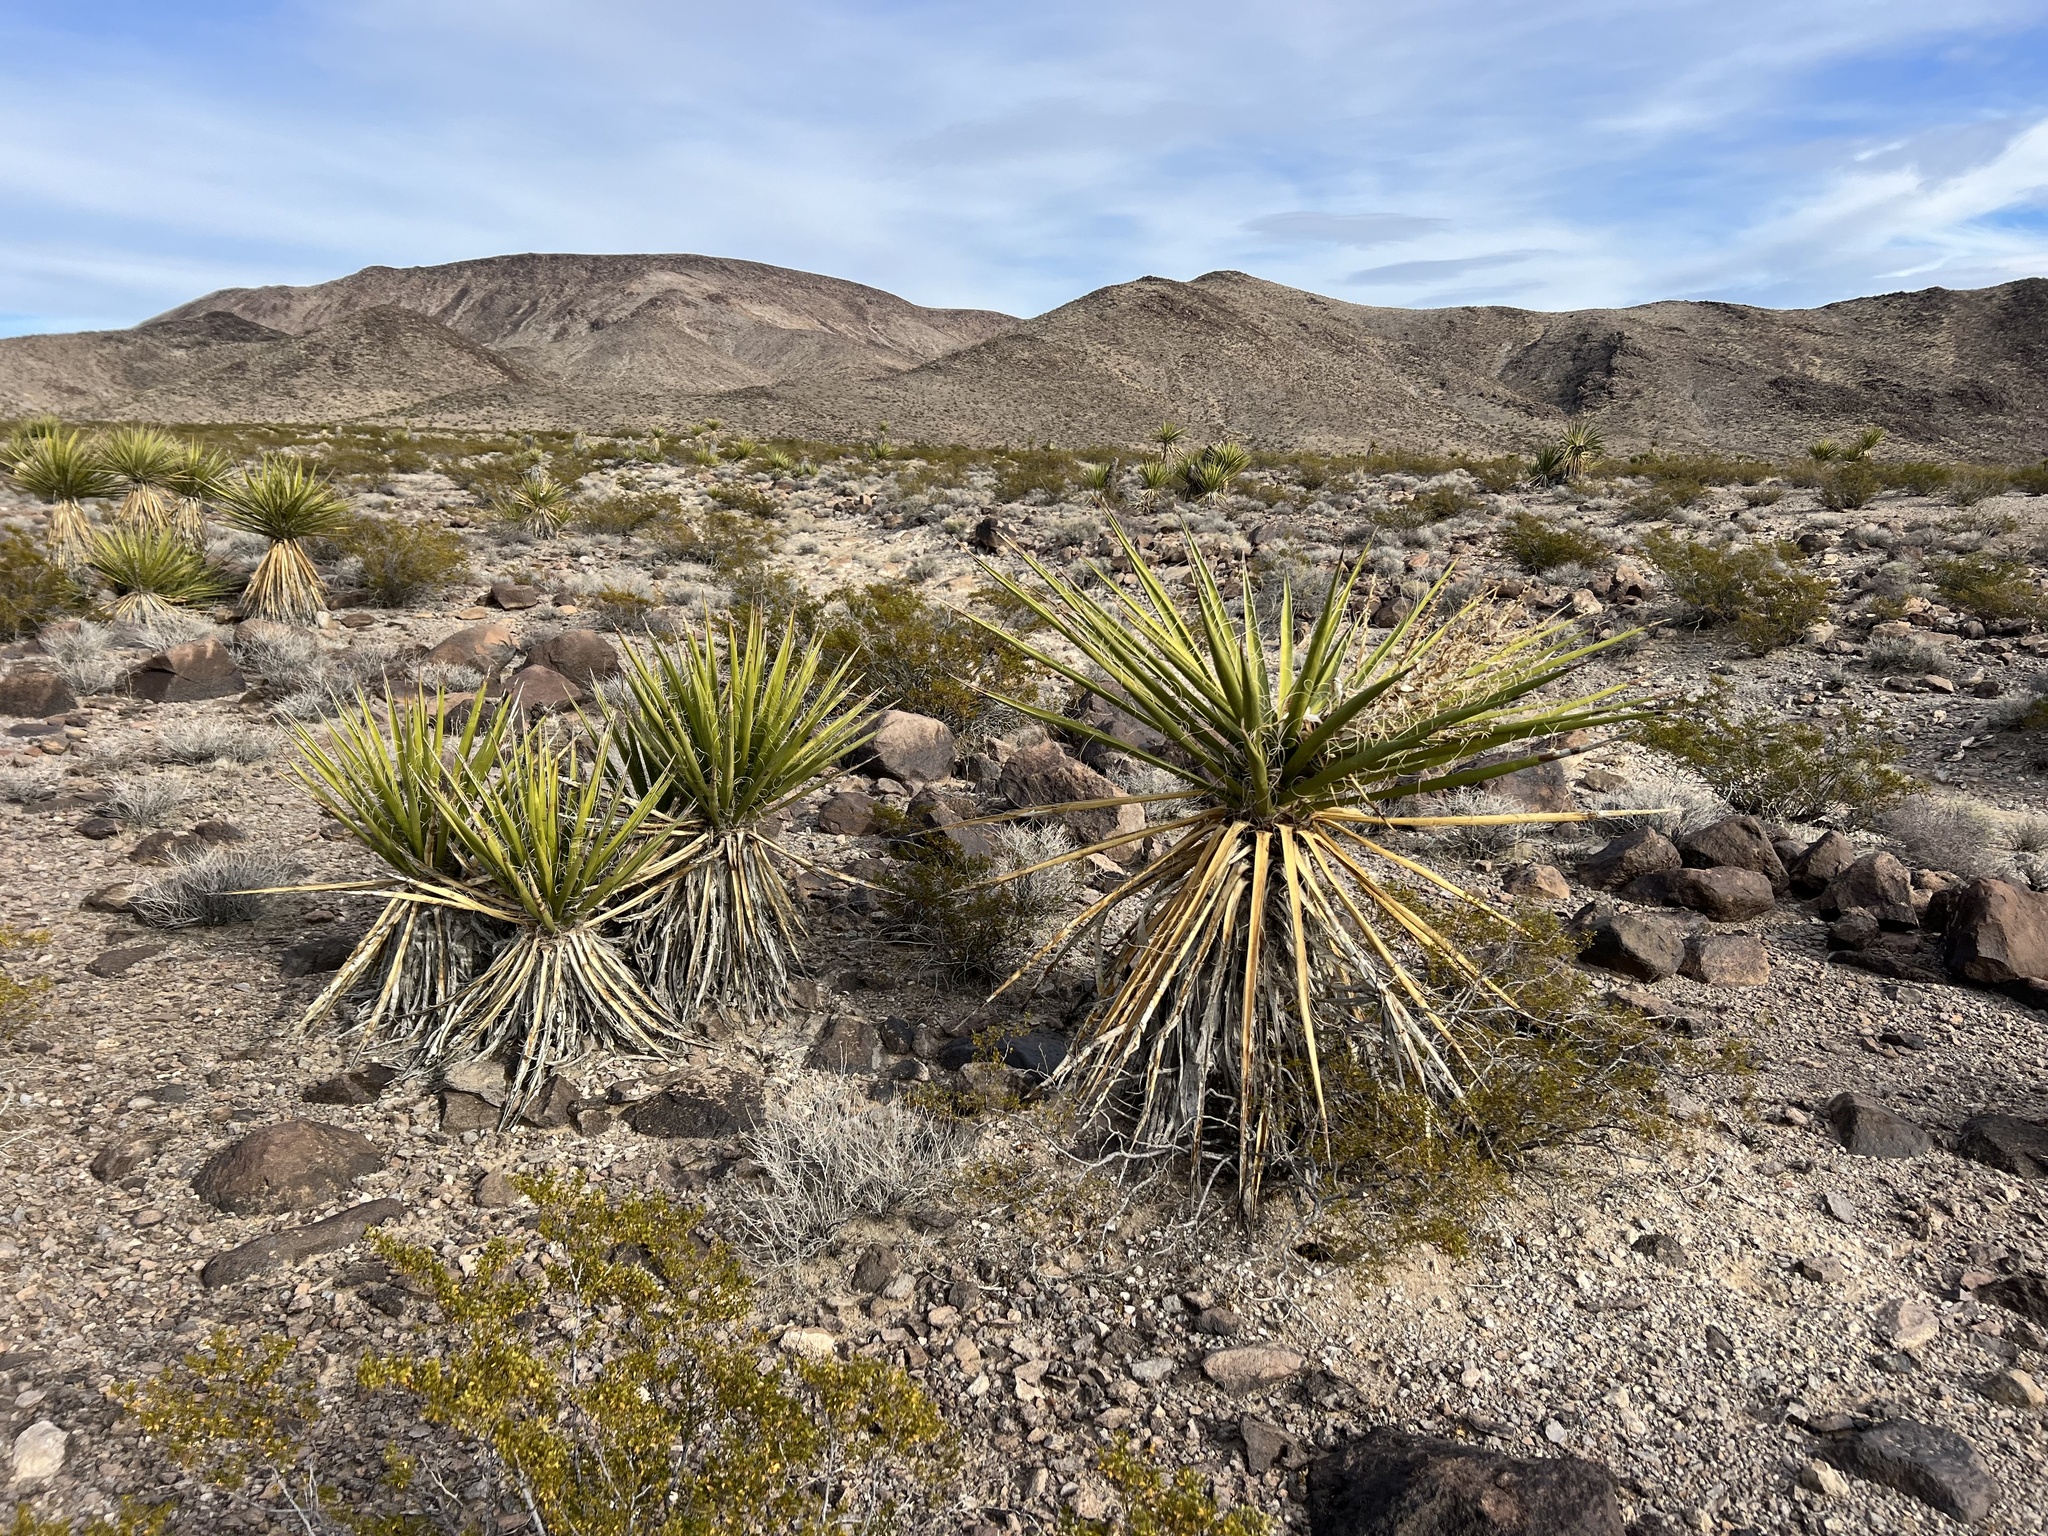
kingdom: Plantae
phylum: Tracheophyta
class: Liliopsida
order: Asparagales
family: Asparagaceae
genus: Yucca
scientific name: Yucca schidigera
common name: Mojave yucca
